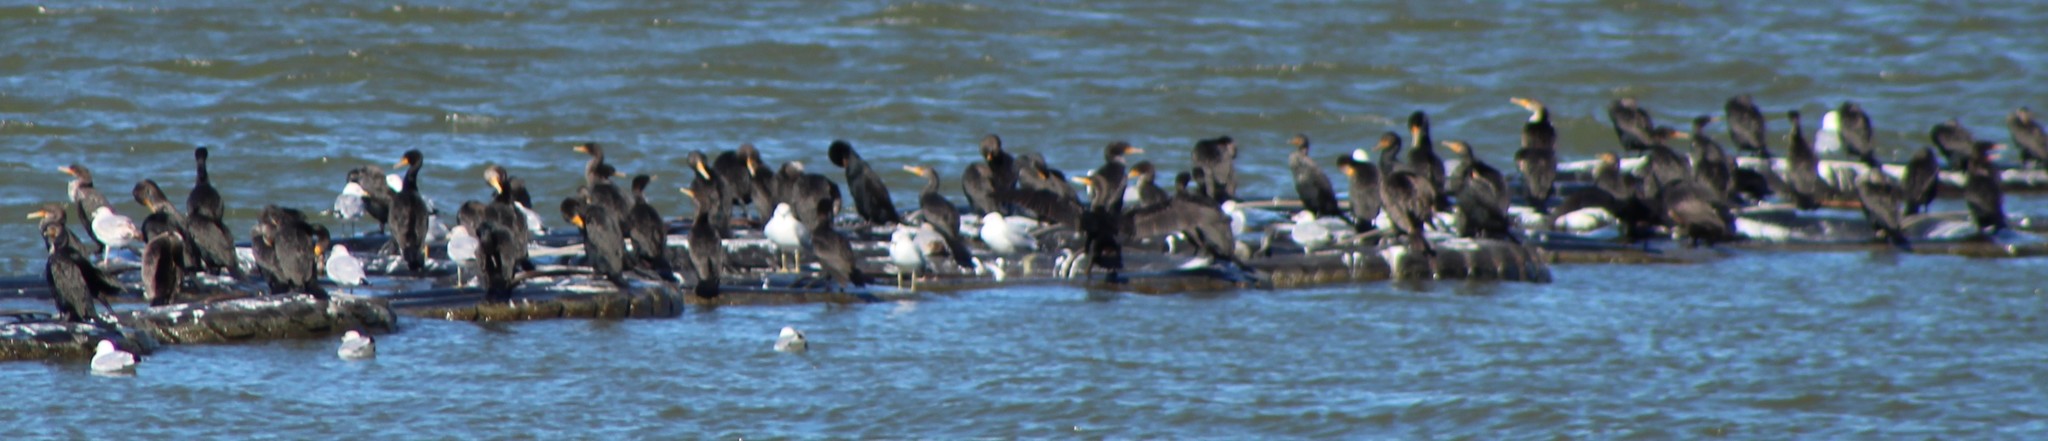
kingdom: Animalia
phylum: Chordata
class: Aves
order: Suliformes
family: Phalacrocoracidae
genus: Phalacrocorax
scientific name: Phalacrocorax auritus
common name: Double-crested cormorant
